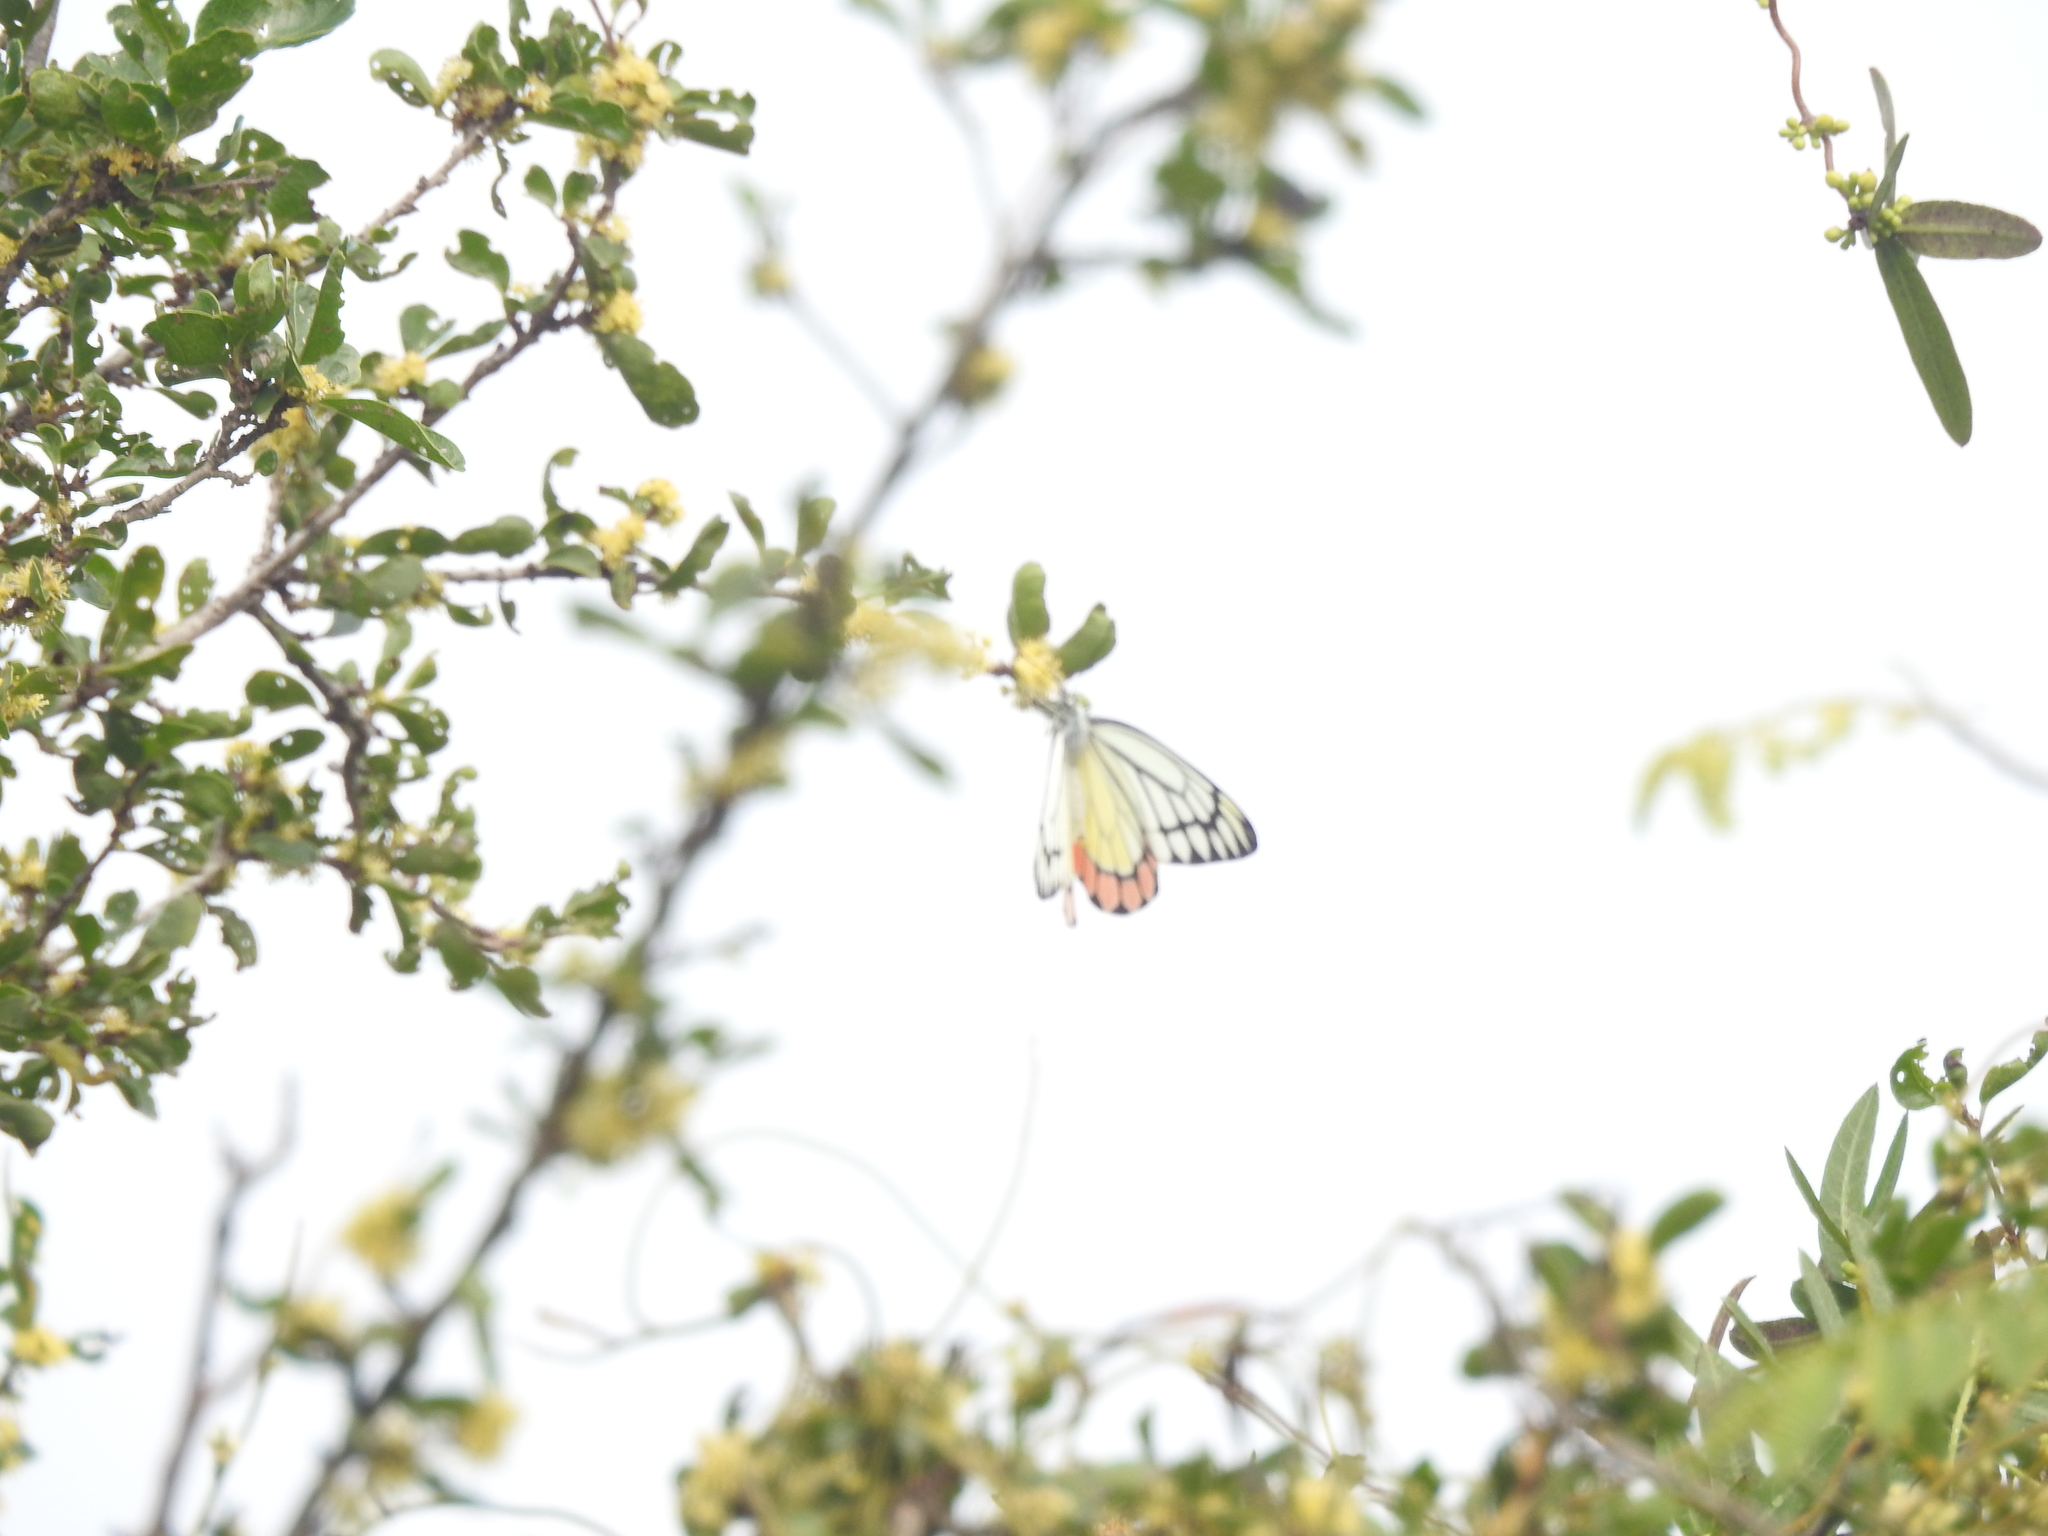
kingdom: Animalia
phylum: Arthropoda
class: Insecta
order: Lepidoptera
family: Pieridae
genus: Delias
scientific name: Delias eucharis
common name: Common jezebel
